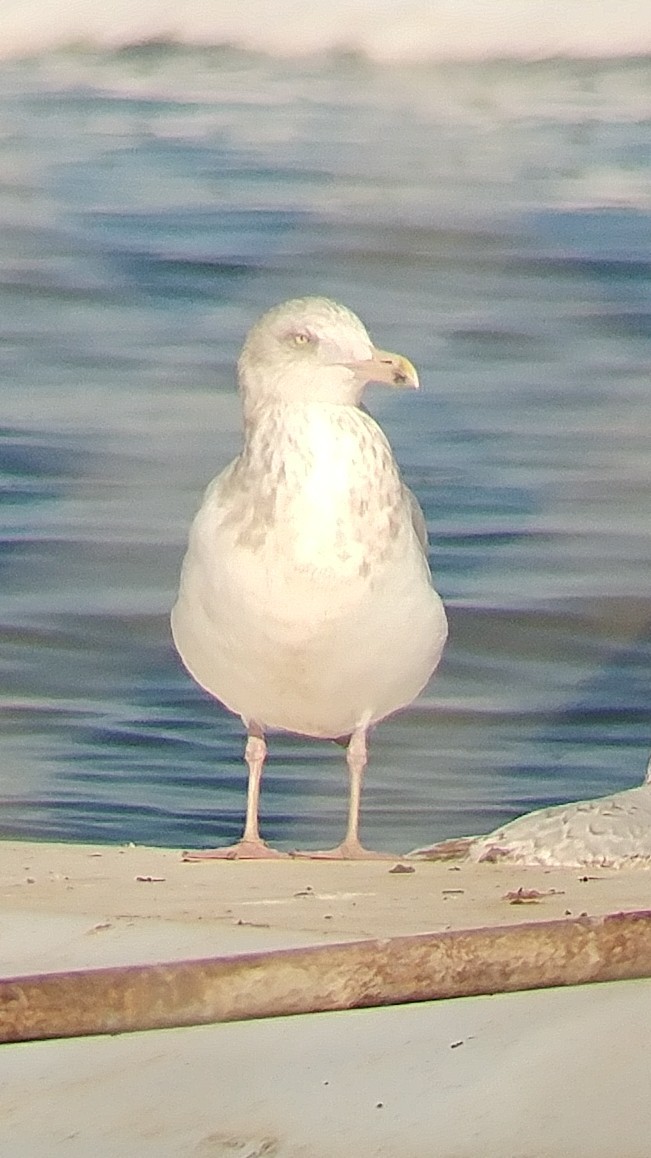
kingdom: Animalia
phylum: Chordata
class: Aves
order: Charadriiformes
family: Laridae
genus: Larus
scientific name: Larus argentatus
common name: Herring gull
